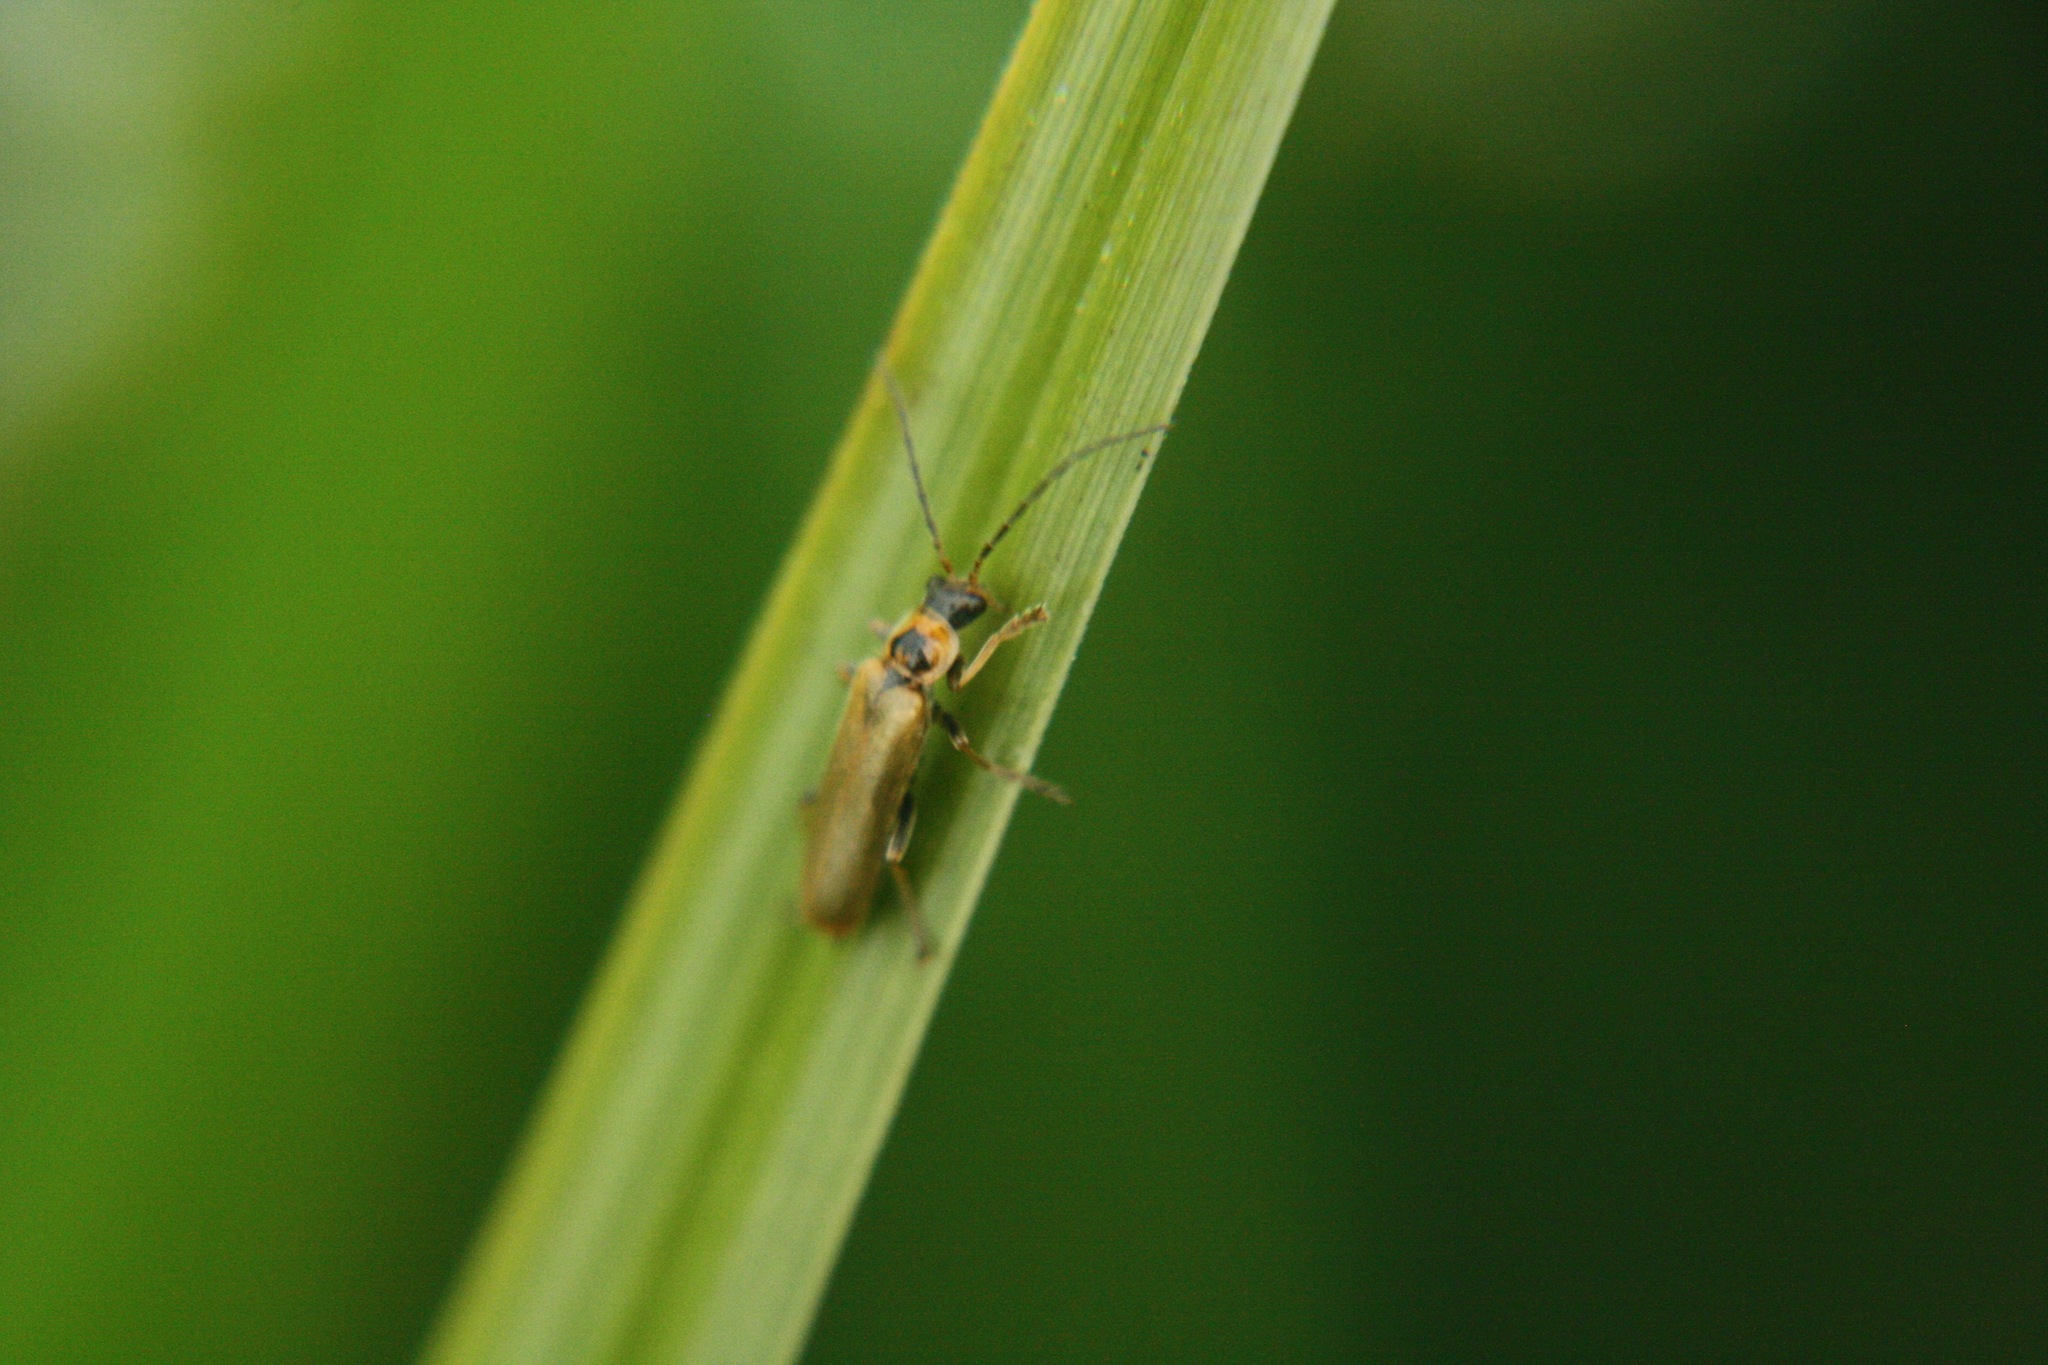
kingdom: Animalia
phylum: Arthropoda
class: Insecta
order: Coleoptera
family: Cantharidae
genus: Cantharis
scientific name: Cantharis figurata
